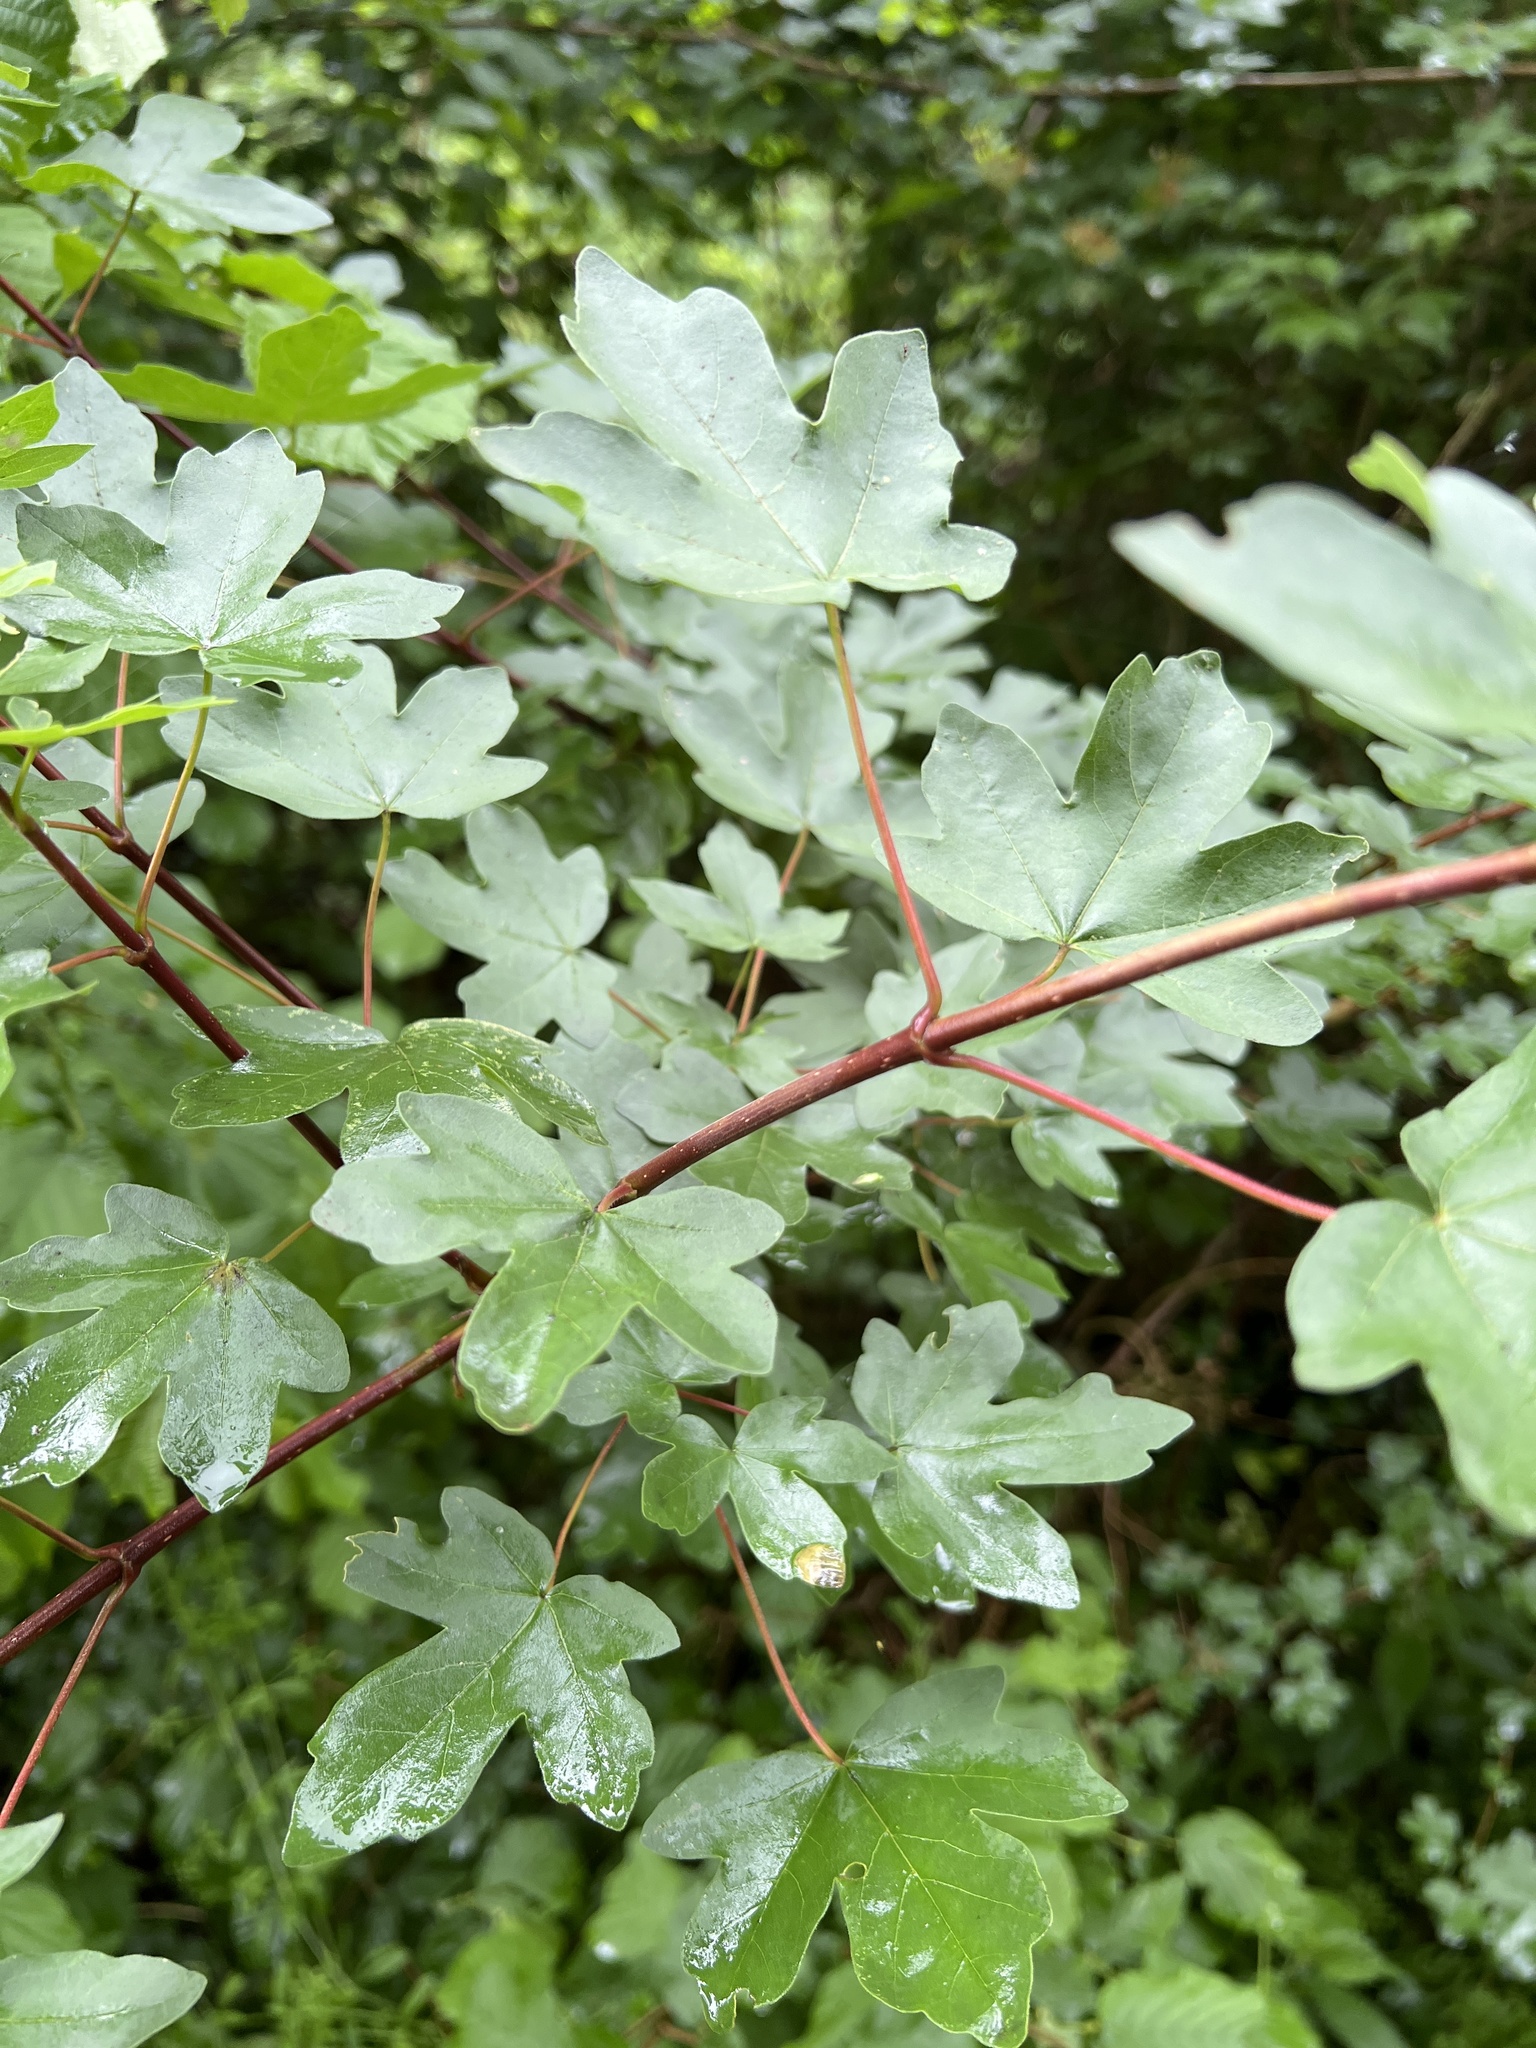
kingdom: Plantae
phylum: Tracheophyta
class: Magnoliopsida
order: Sapindales
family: Sapindaceae
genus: Acer
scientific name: Acer campestre
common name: Field maple
